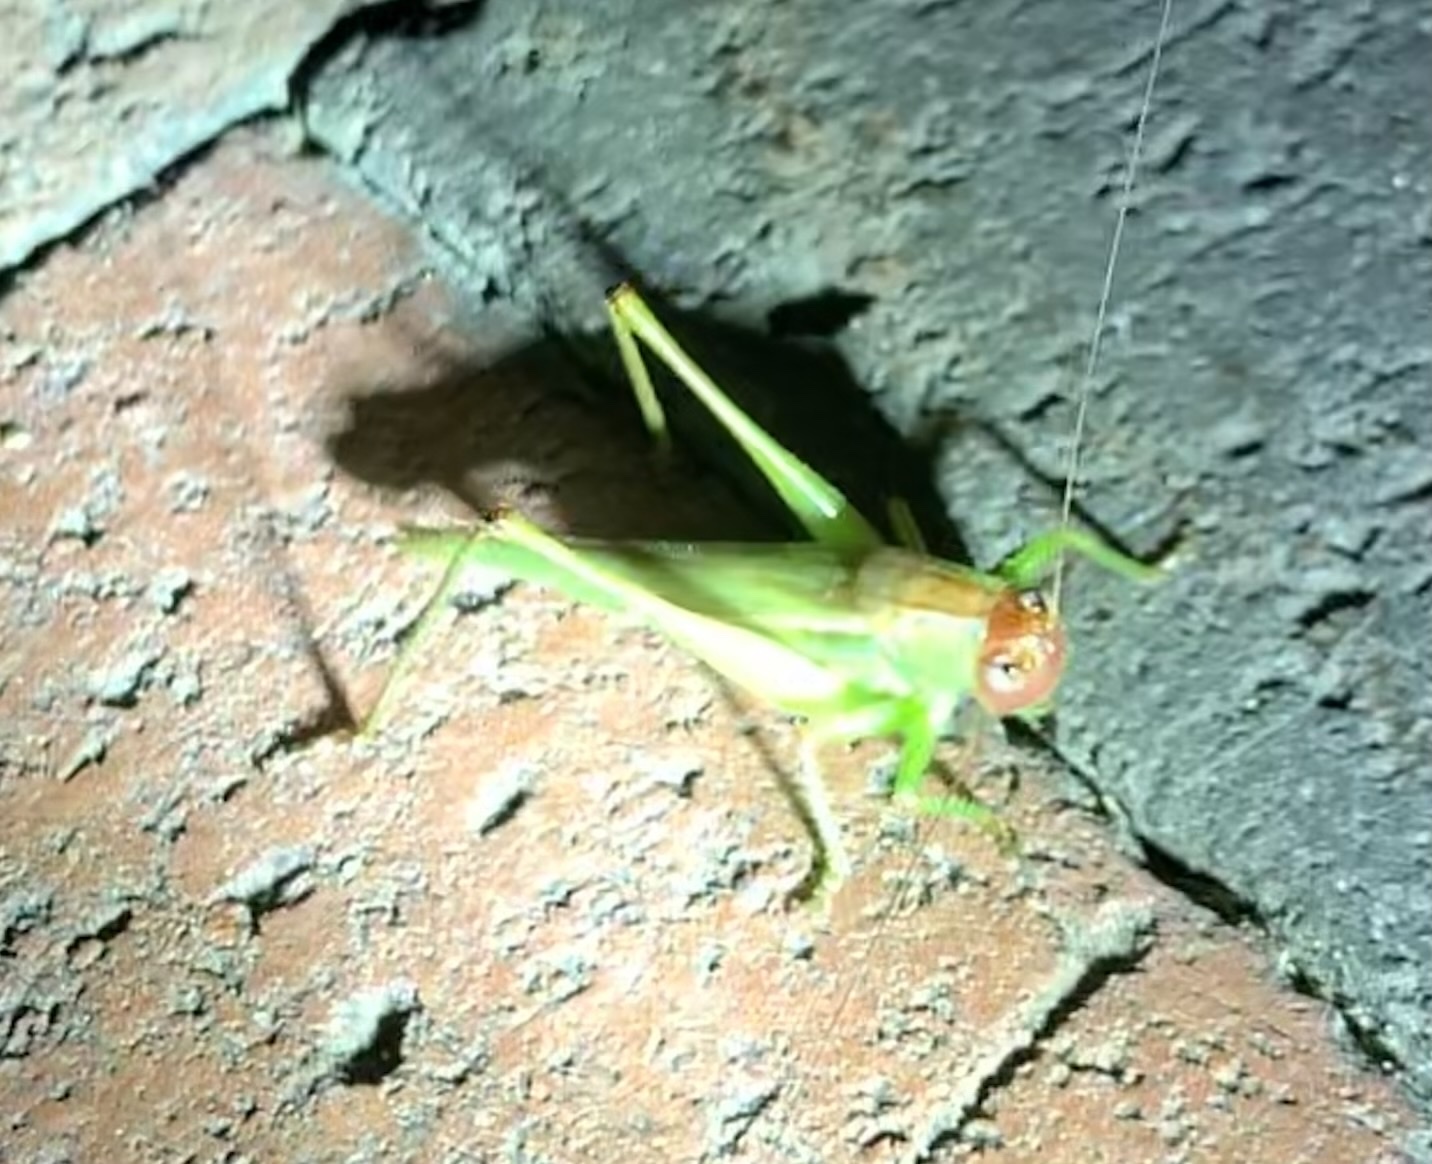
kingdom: Animalia
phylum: Arthropoda
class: Insecta
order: Orthoptera
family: Tettigoniidae
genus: Orchelimum
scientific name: Orchelimum pulchellum
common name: Handsome meadow katydid
